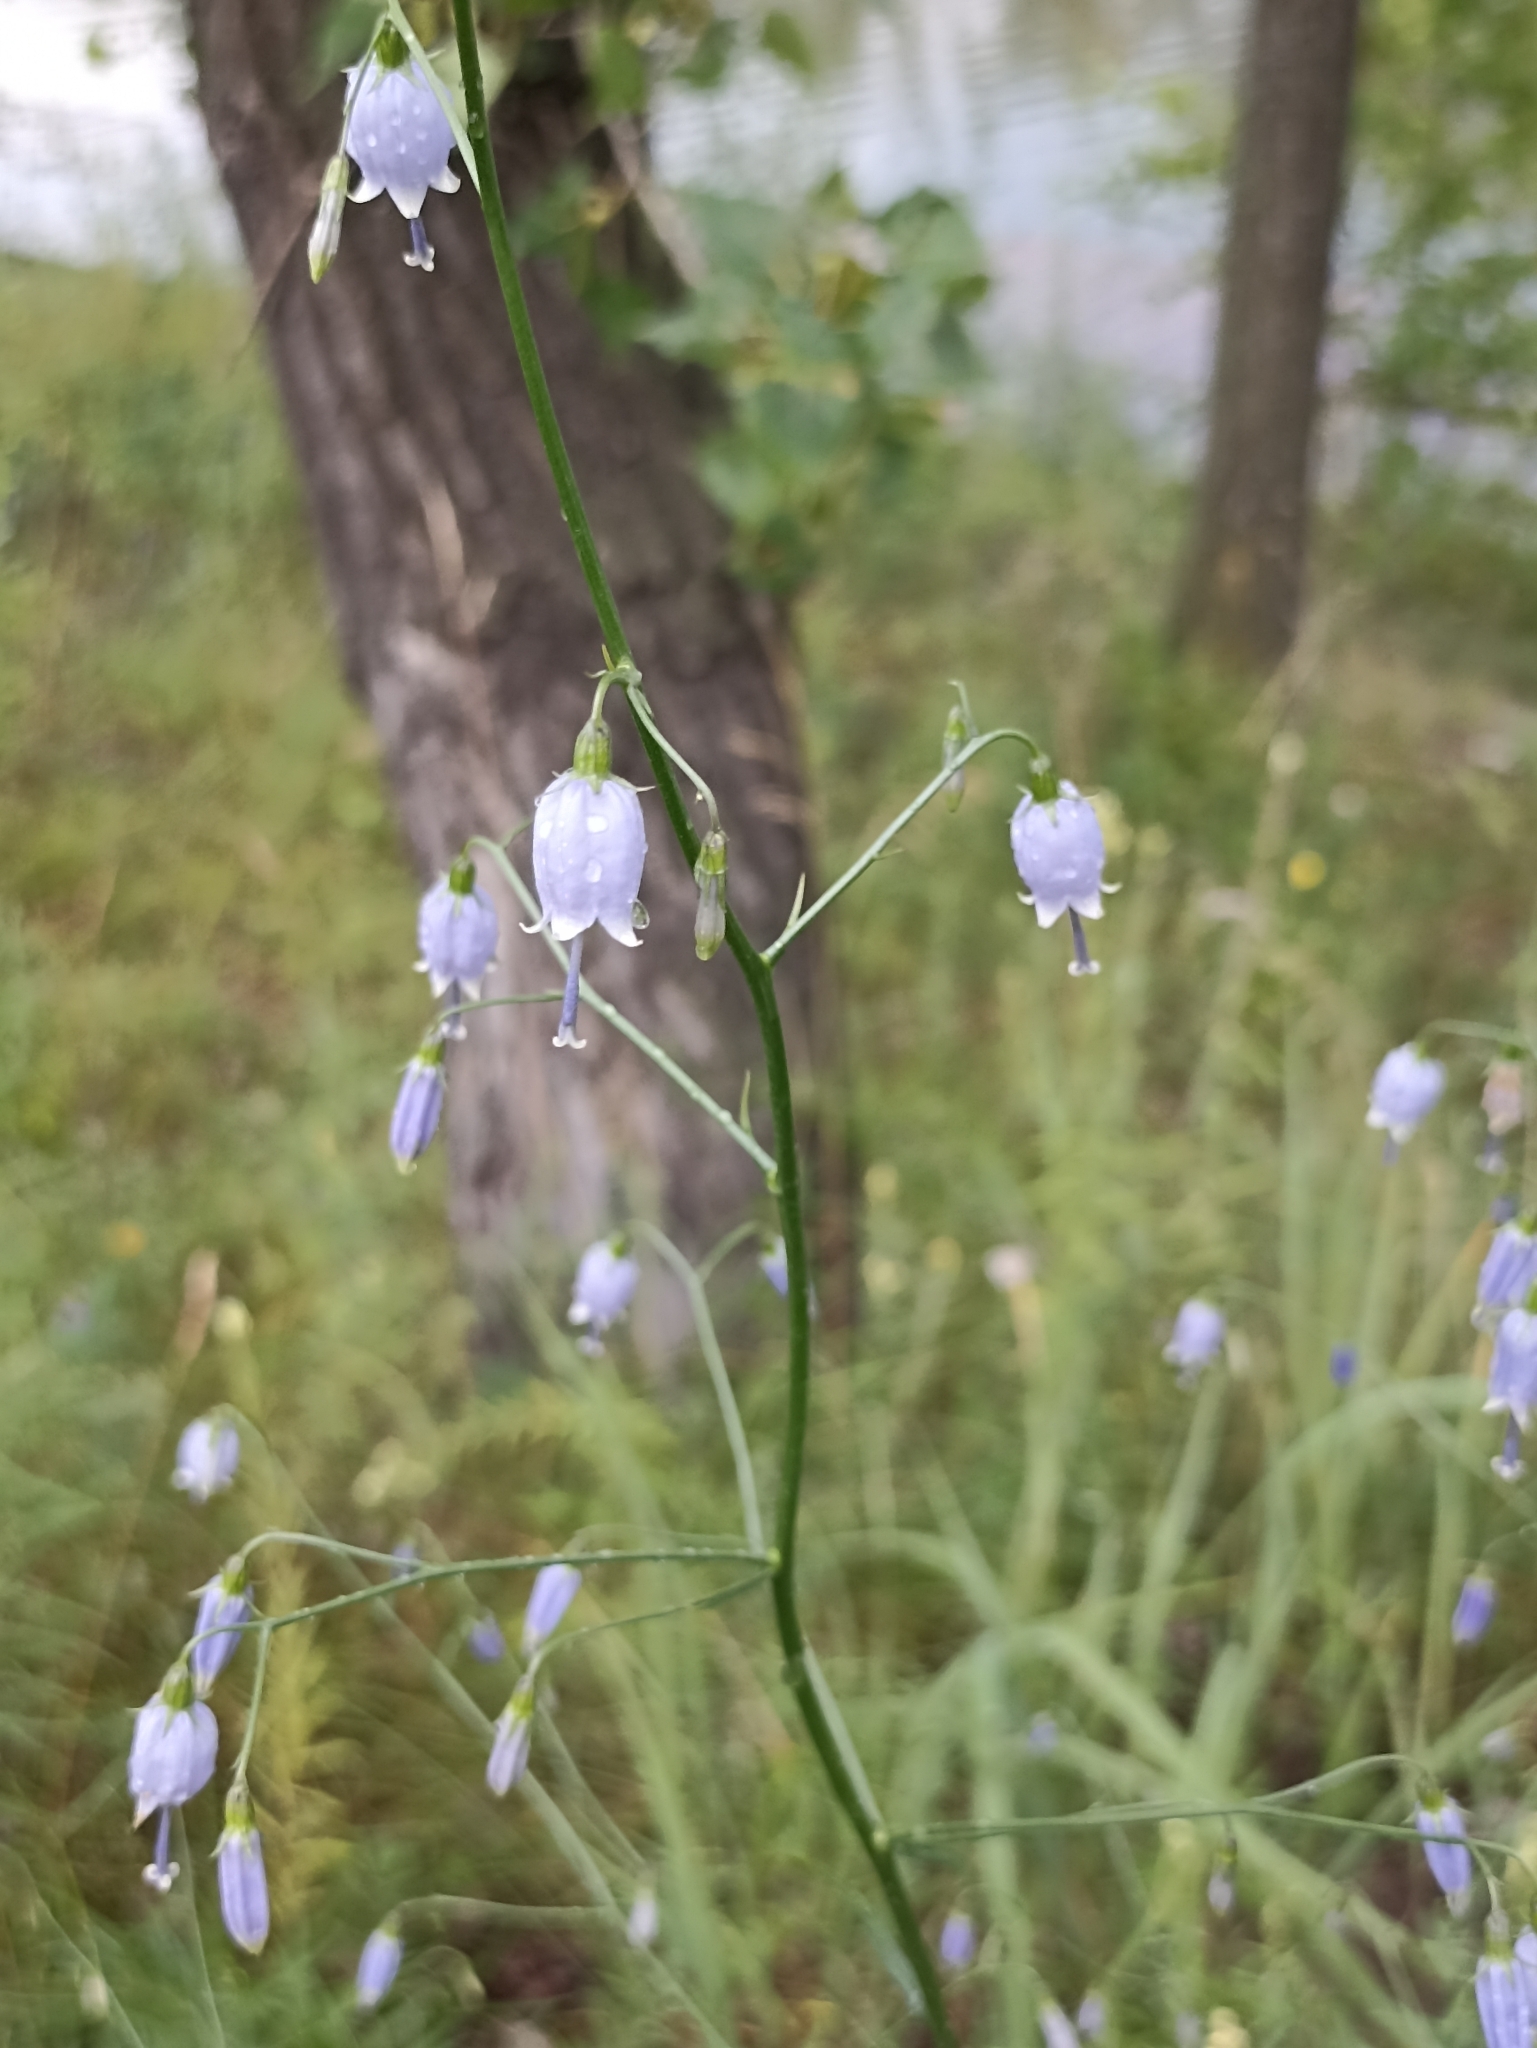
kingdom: Plantae
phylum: Tracheophyta
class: Magnoliopsida
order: Asterales
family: Campanulaceae
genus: Adenophora
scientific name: Adenophora stenanthina
